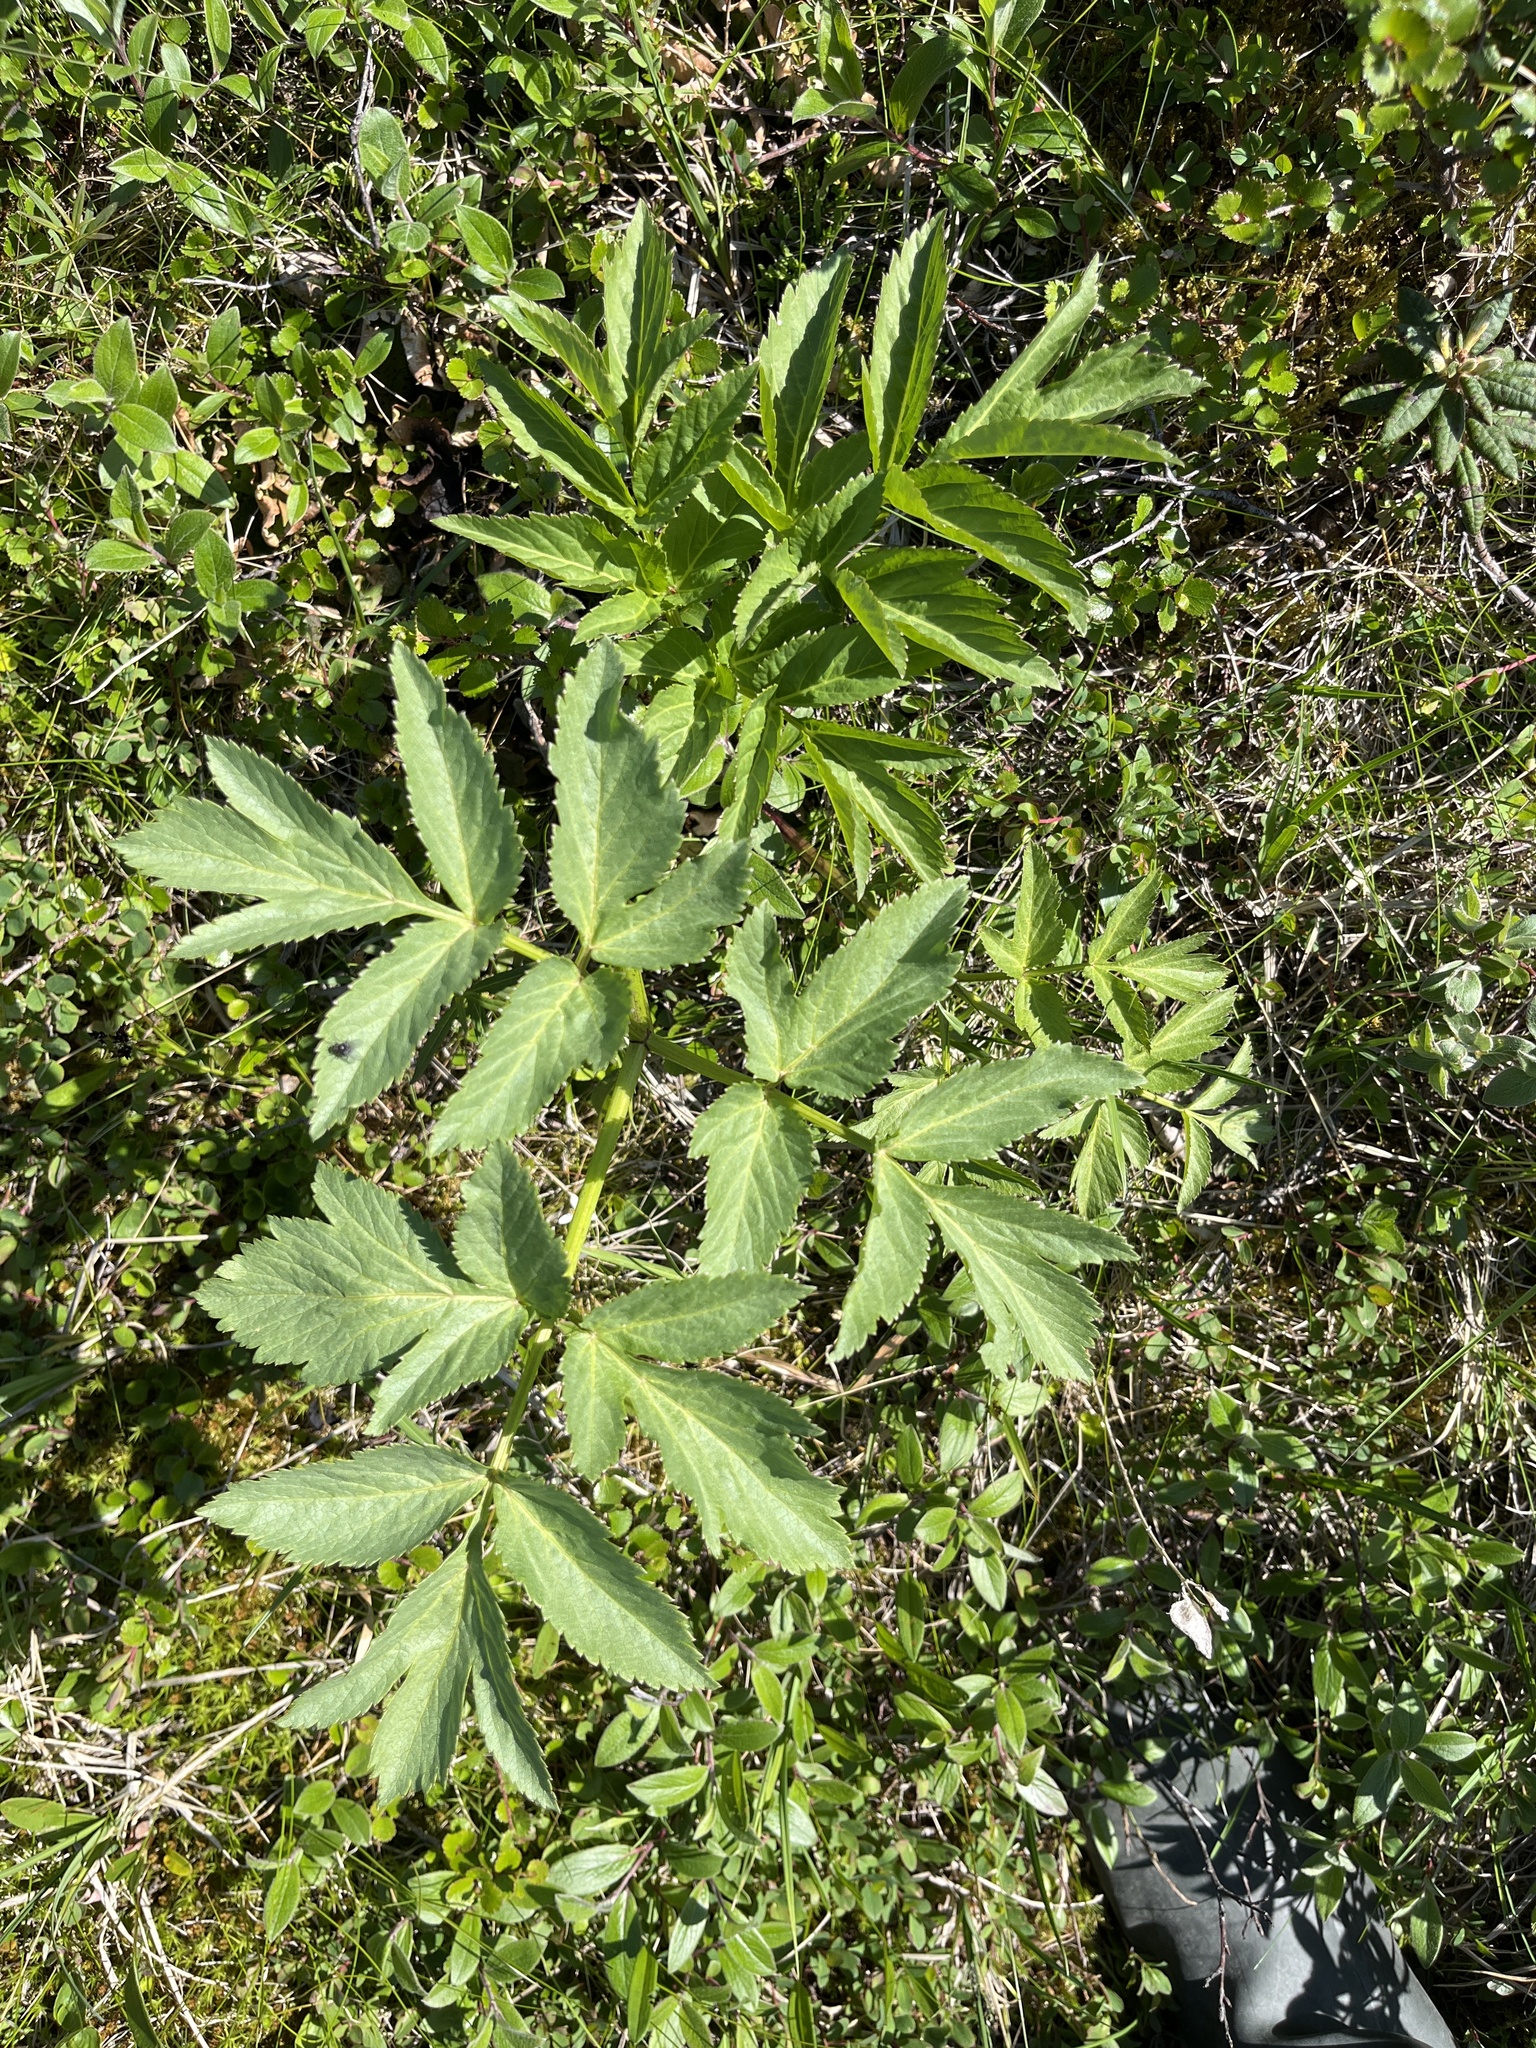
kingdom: Plantae
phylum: Tracheophyta
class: Magnoliopsida
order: Apiales
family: Apiaceae
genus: Angelica
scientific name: Angelica archangelica
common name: Garden angelica
